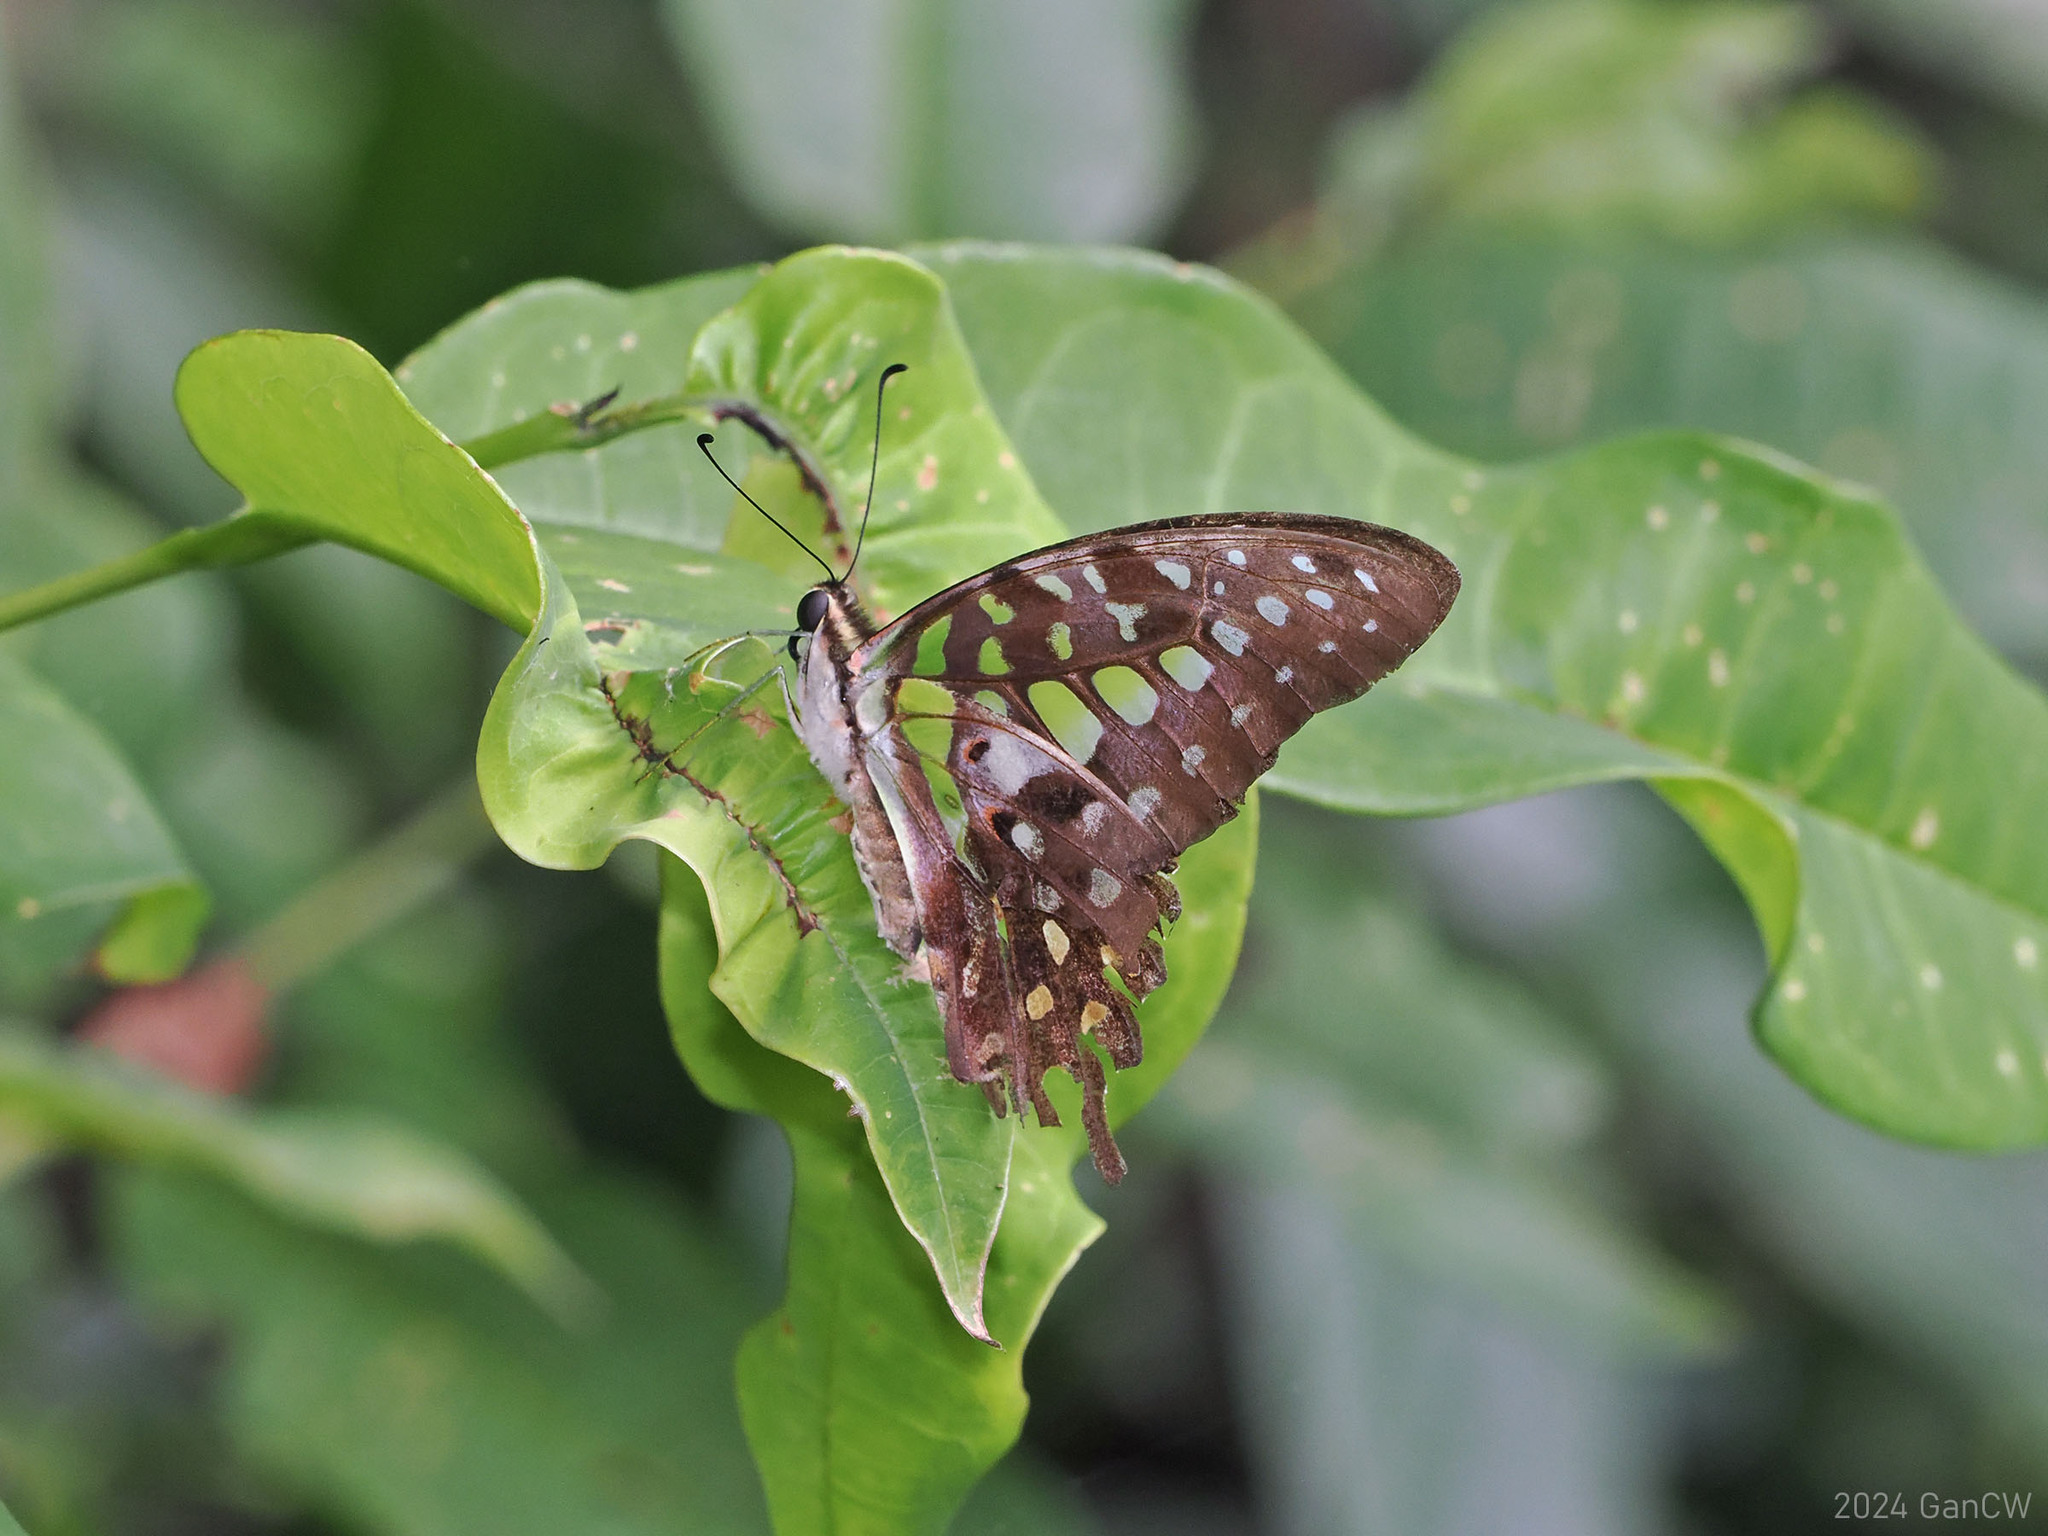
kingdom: Animalia
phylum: Arthropoda
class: Insecta
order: Lepidoptera
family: Papilionidae
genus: Graphium
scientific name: Graphium agamemnon
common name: Tailed jay
